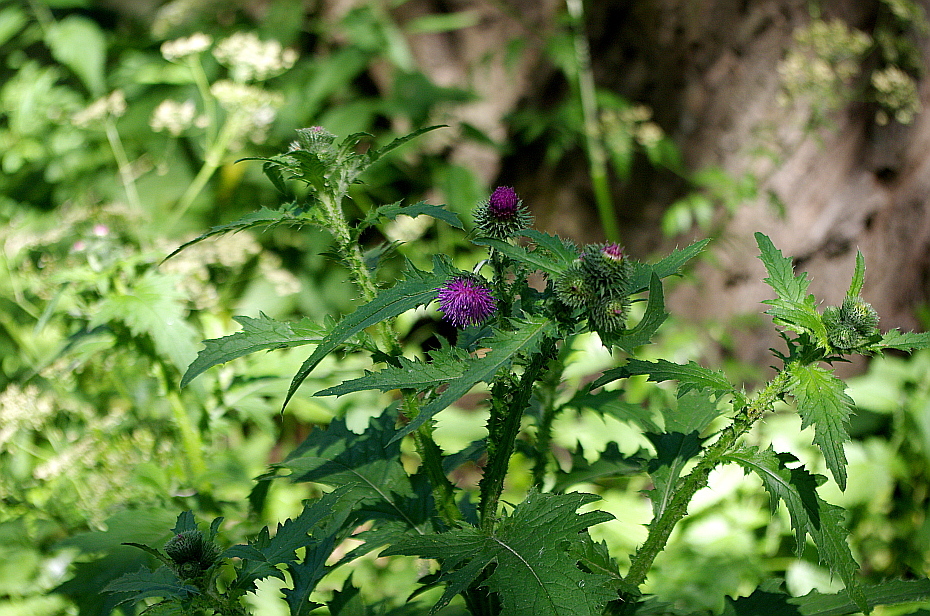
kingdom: Plantae
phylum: Tracheophyta
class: Magnoliopsida
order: Asterales
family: Asteraceae
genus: Carduus
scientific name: Carduus crispus
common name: Welted thistle
